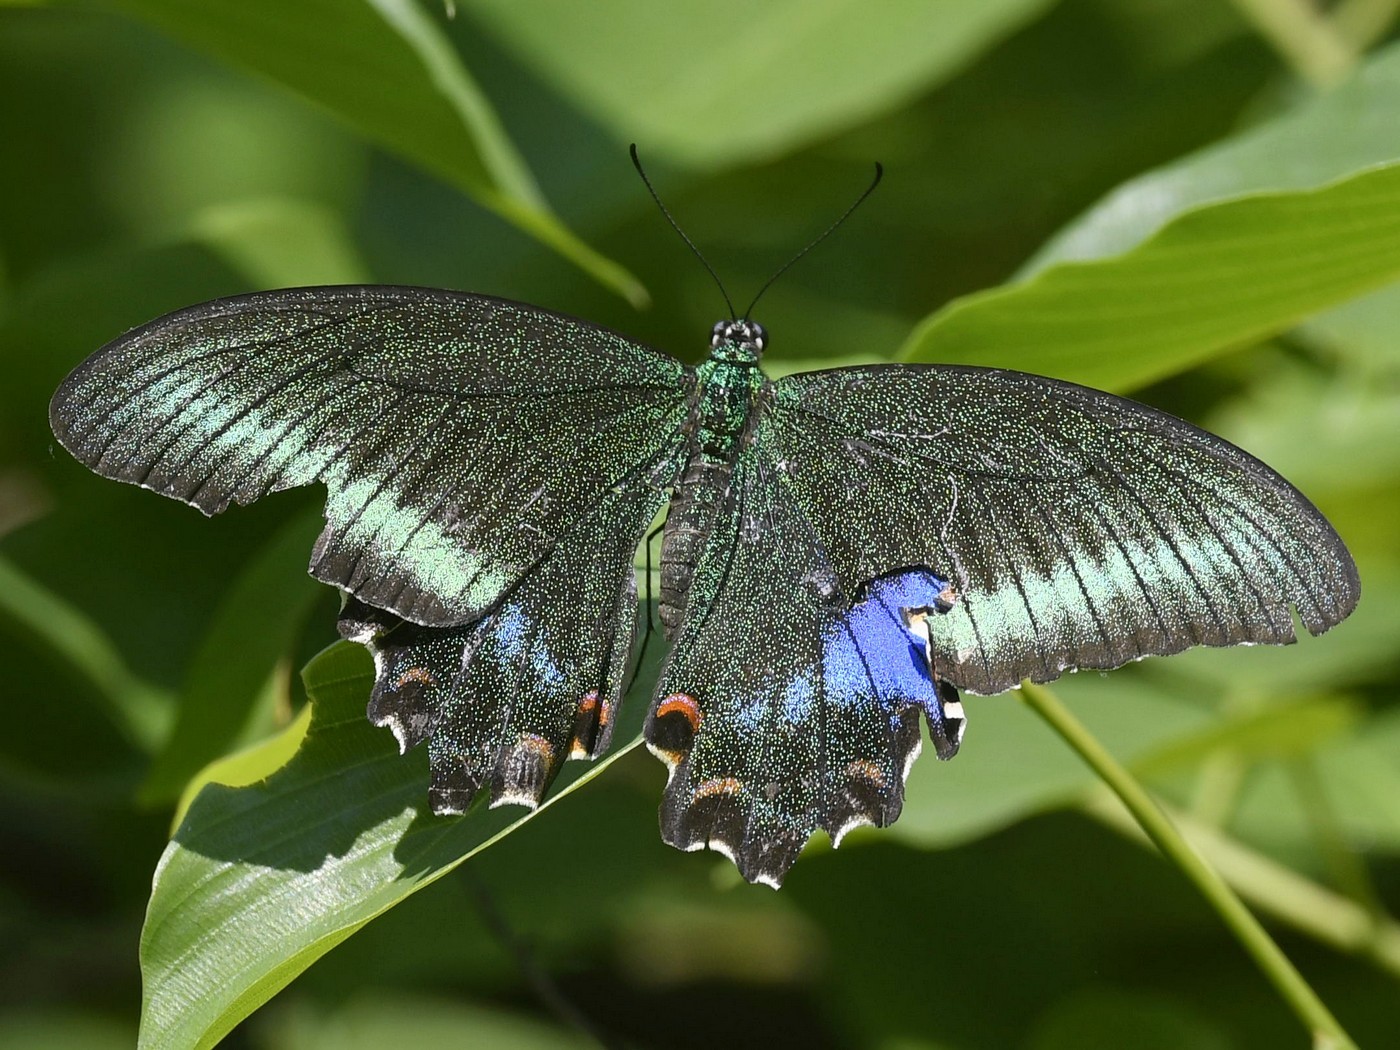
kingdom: Animalia
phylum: Arthropoda
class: Insecta
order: Lepidoptera
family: Papilionidae
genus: Papilio
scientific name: Papilio bianor
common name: Common peacock
